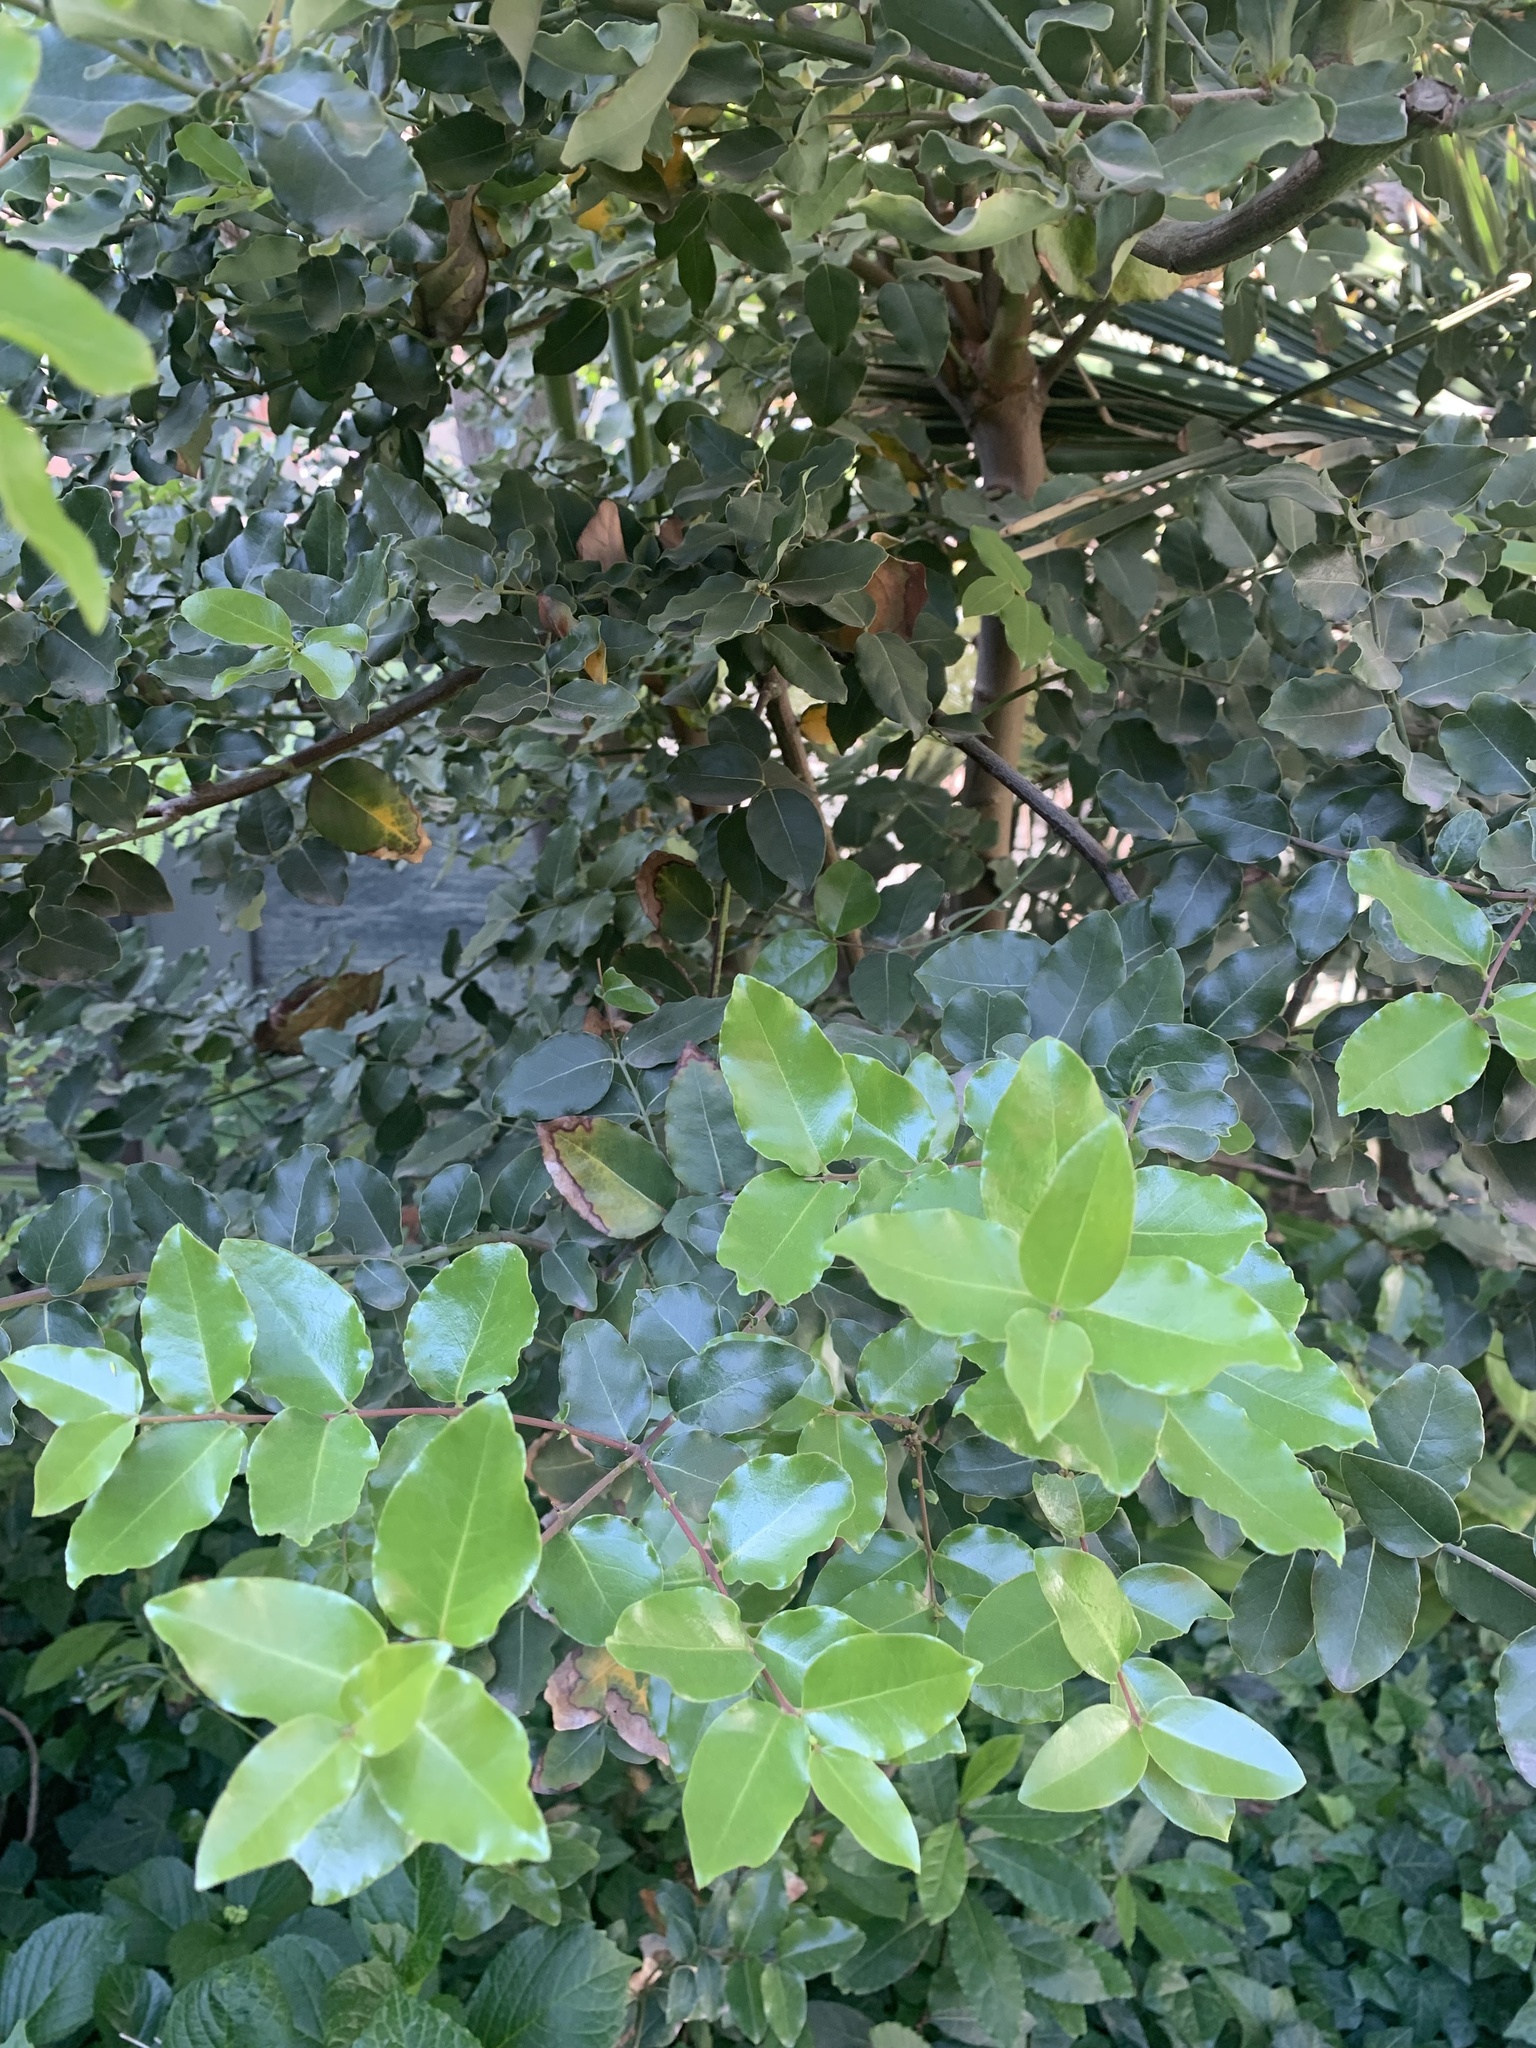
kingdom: Plantae
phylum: Tracheophyta
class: Magnoliopsida
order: Laurales
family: Lauraceae
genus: Cryptocarya
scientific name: Cryptocarya alba
